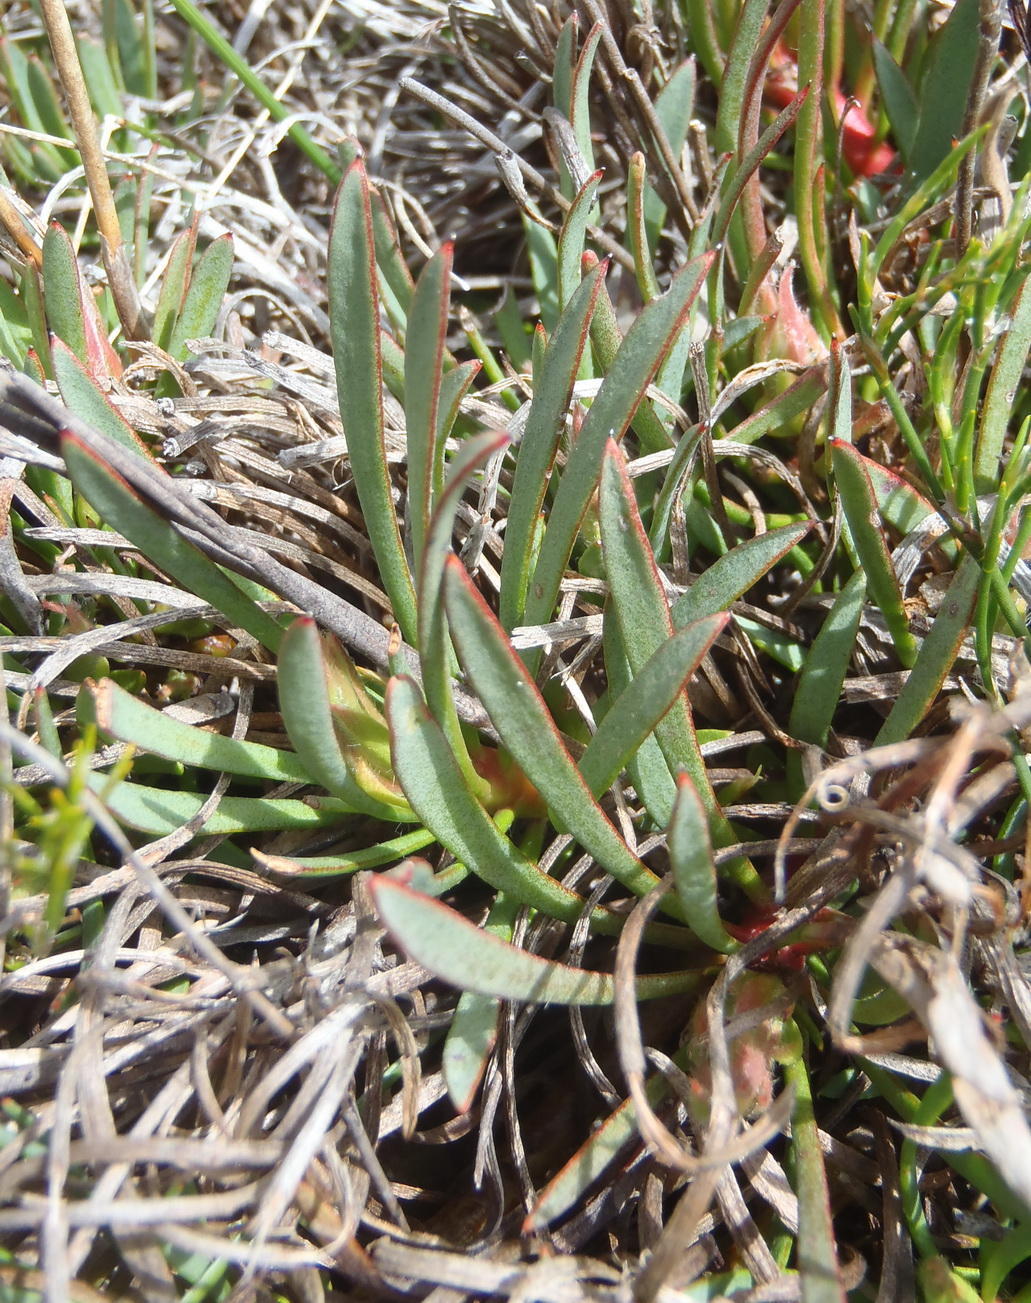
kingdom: Plantae
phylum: Tracheophyta
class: Magnoliopsida
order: Proteales
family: Proteaceae
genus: Protea
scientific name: Protea montana
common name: Swartberg sugarbush
